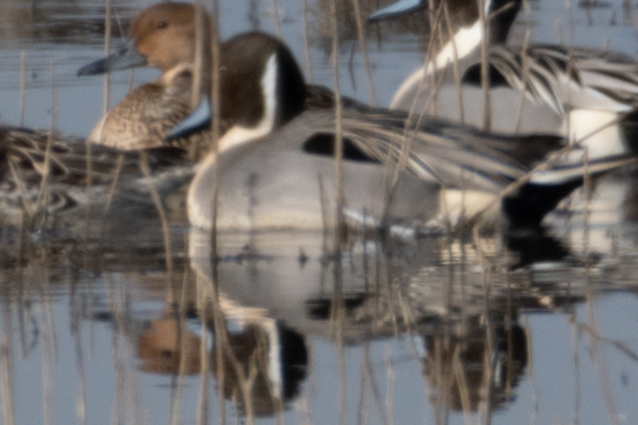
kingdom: Animalia
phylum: Chordata
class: Aves
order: Anseriformes
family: Anatidae
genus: Anas
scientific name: Anas acuta
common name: Northern pintail
